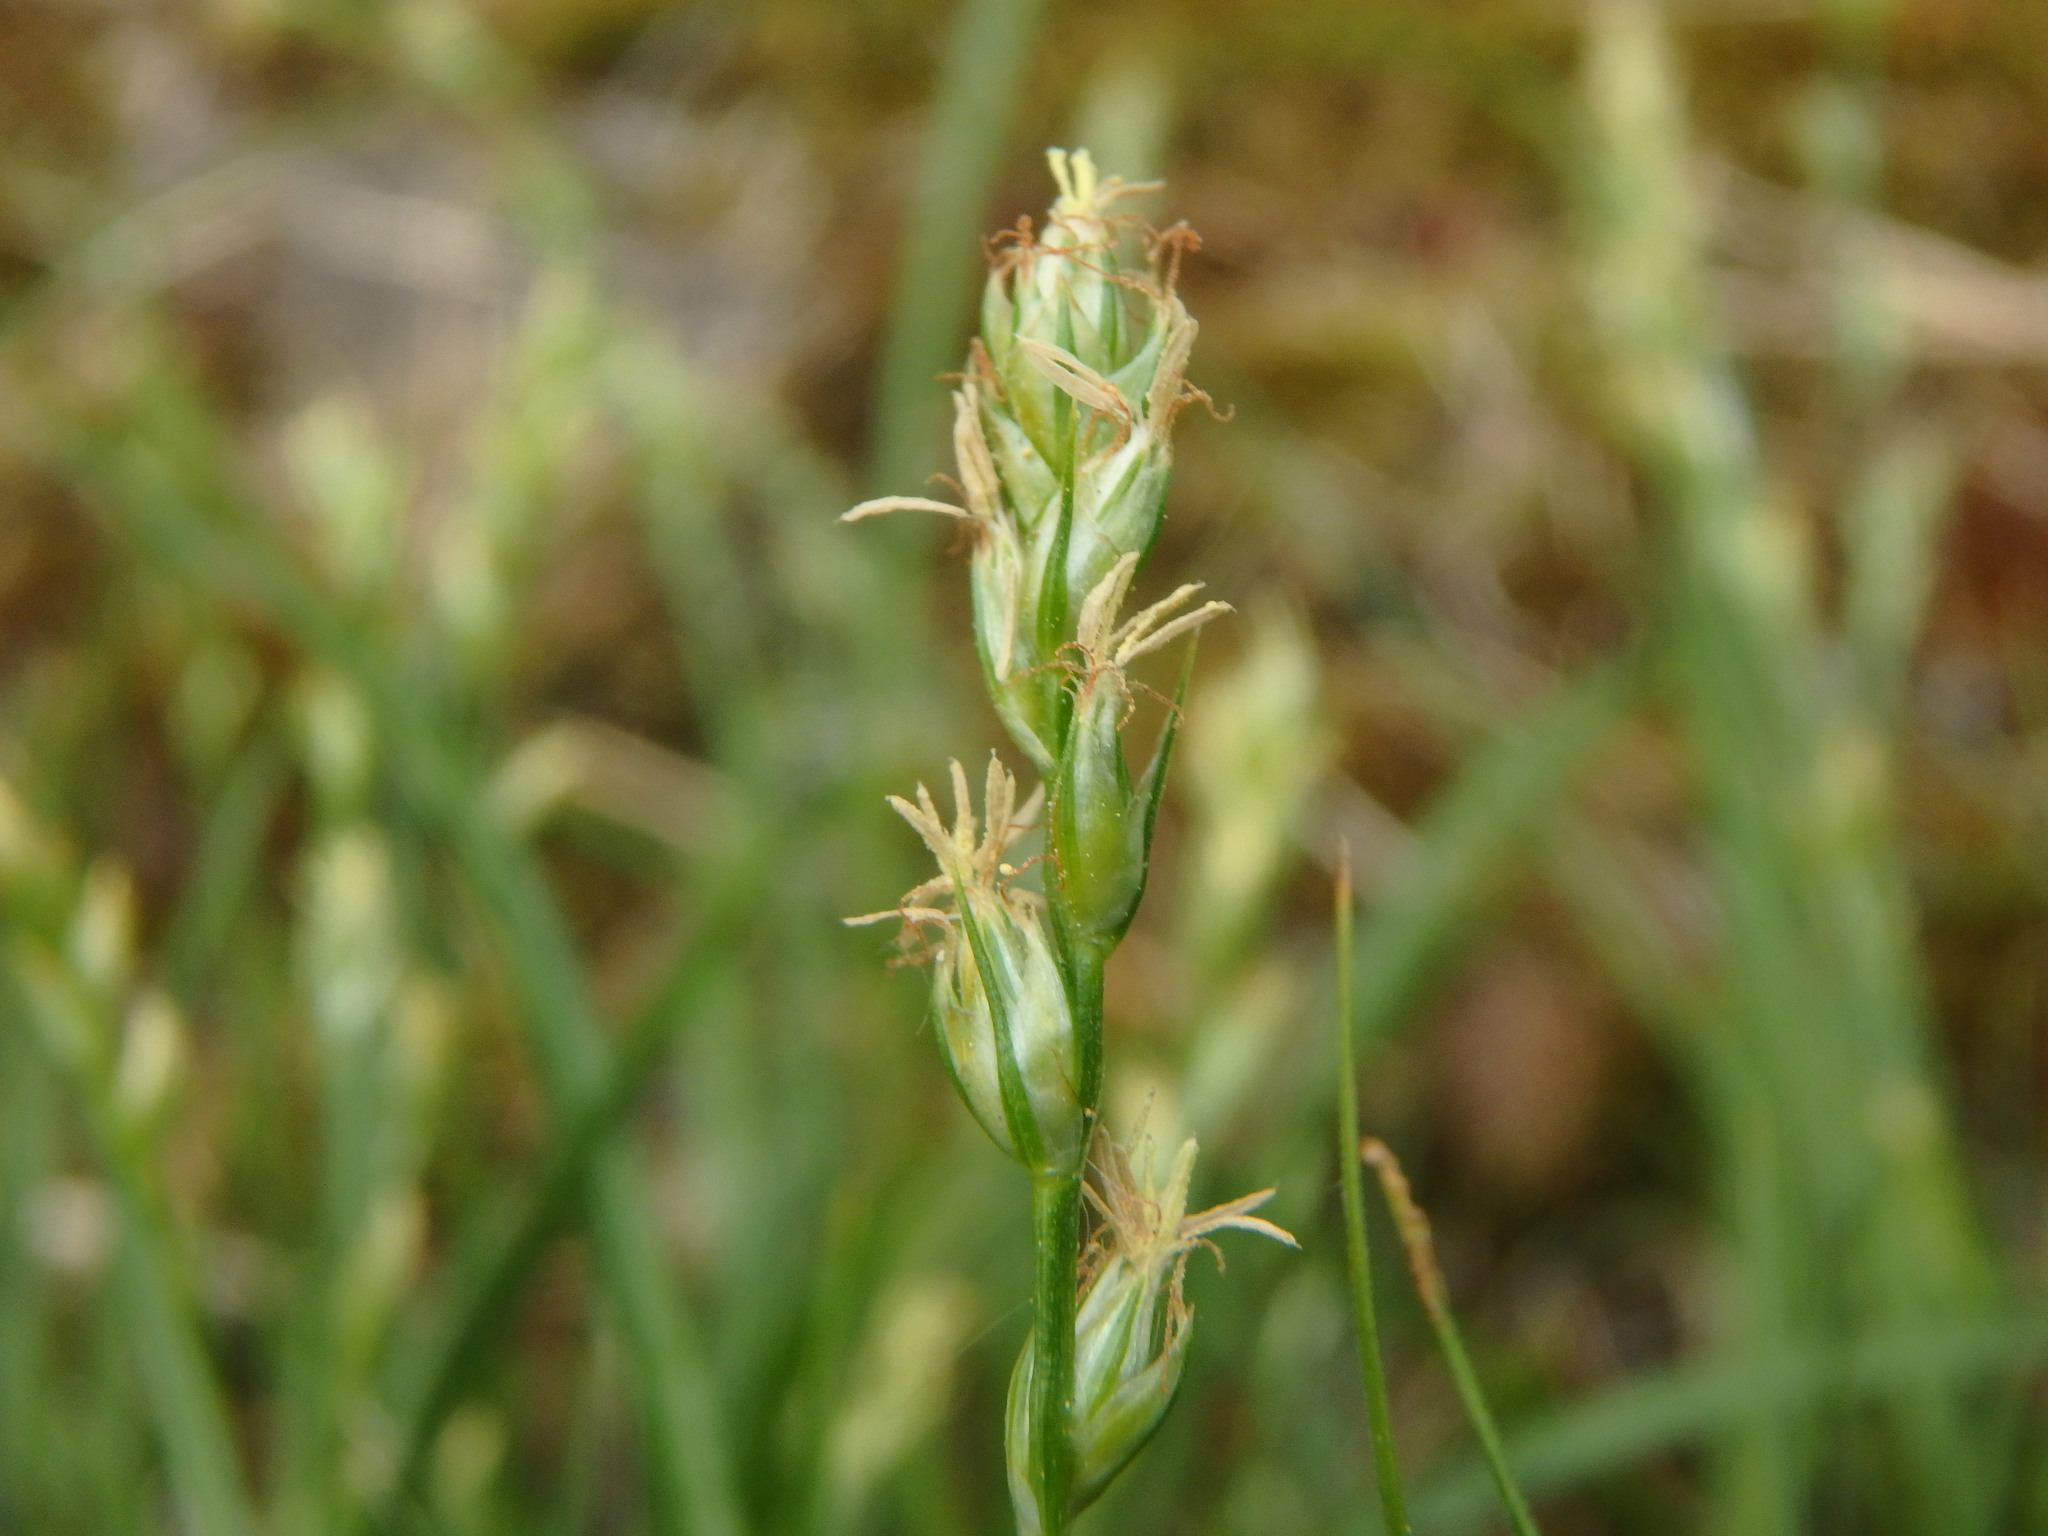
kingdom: Plantae
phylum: Tracheophyta
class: Liliopsida
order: Poales
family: Cyperaceae
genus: Carex
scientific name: Carex divulsa
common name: Grassland sedge
